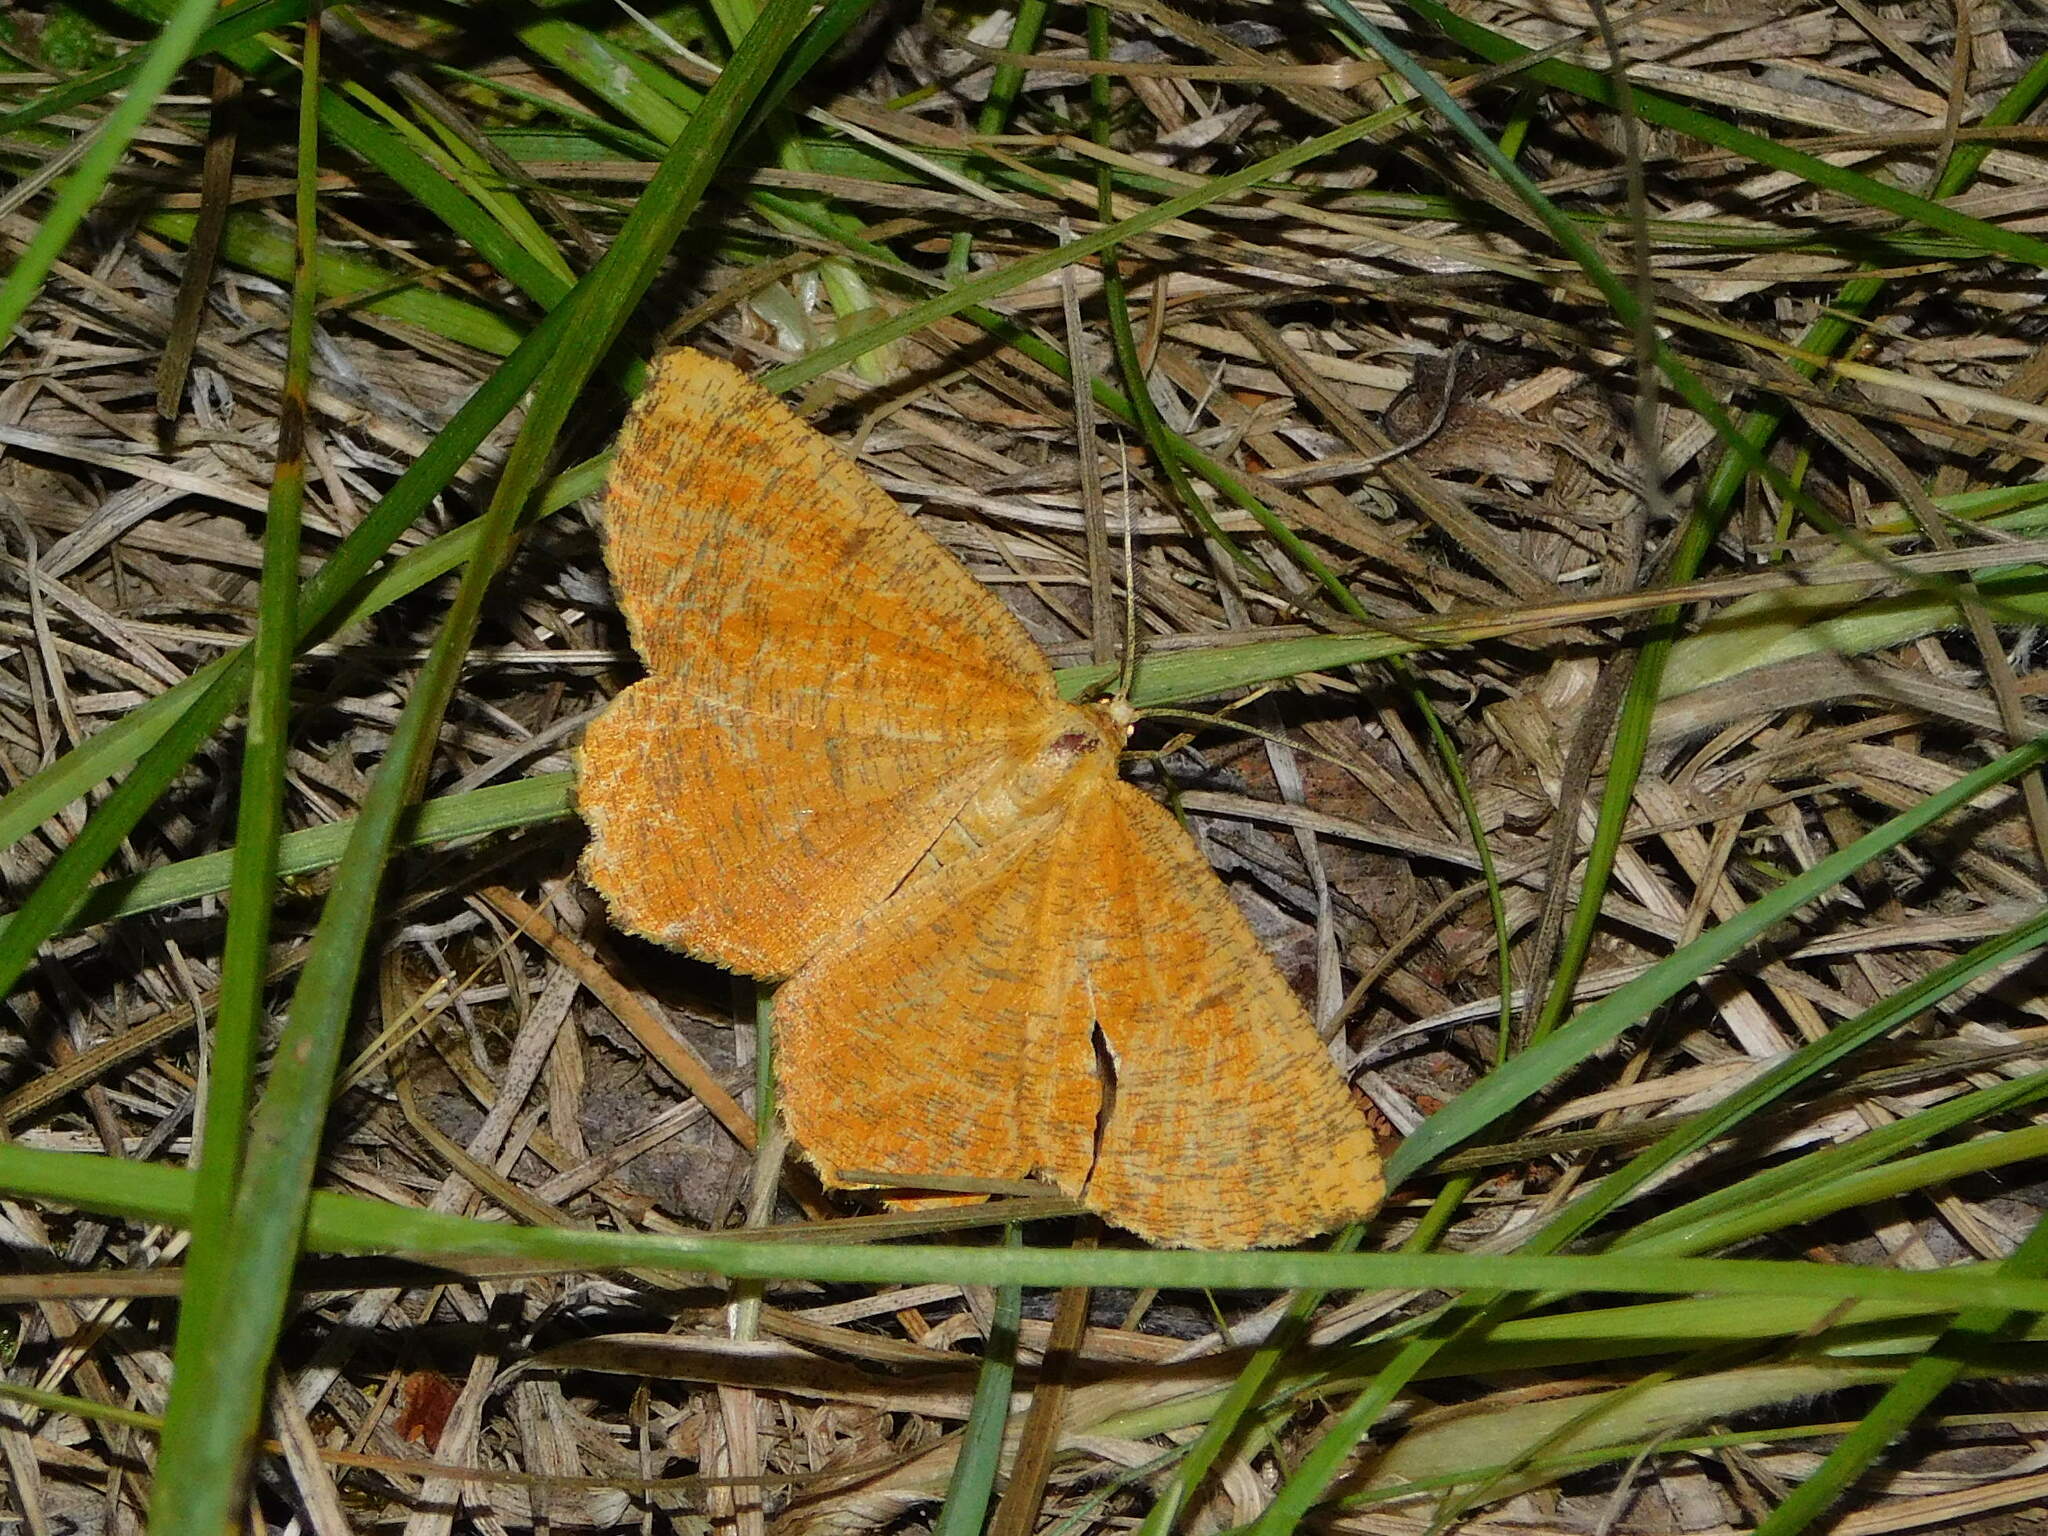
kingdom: Animalia
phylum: Arthropoda
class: Insecta
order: Lepidoptera
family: Geometridae
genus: Angerona
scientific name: Angerona prunaria
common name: Orange moth
